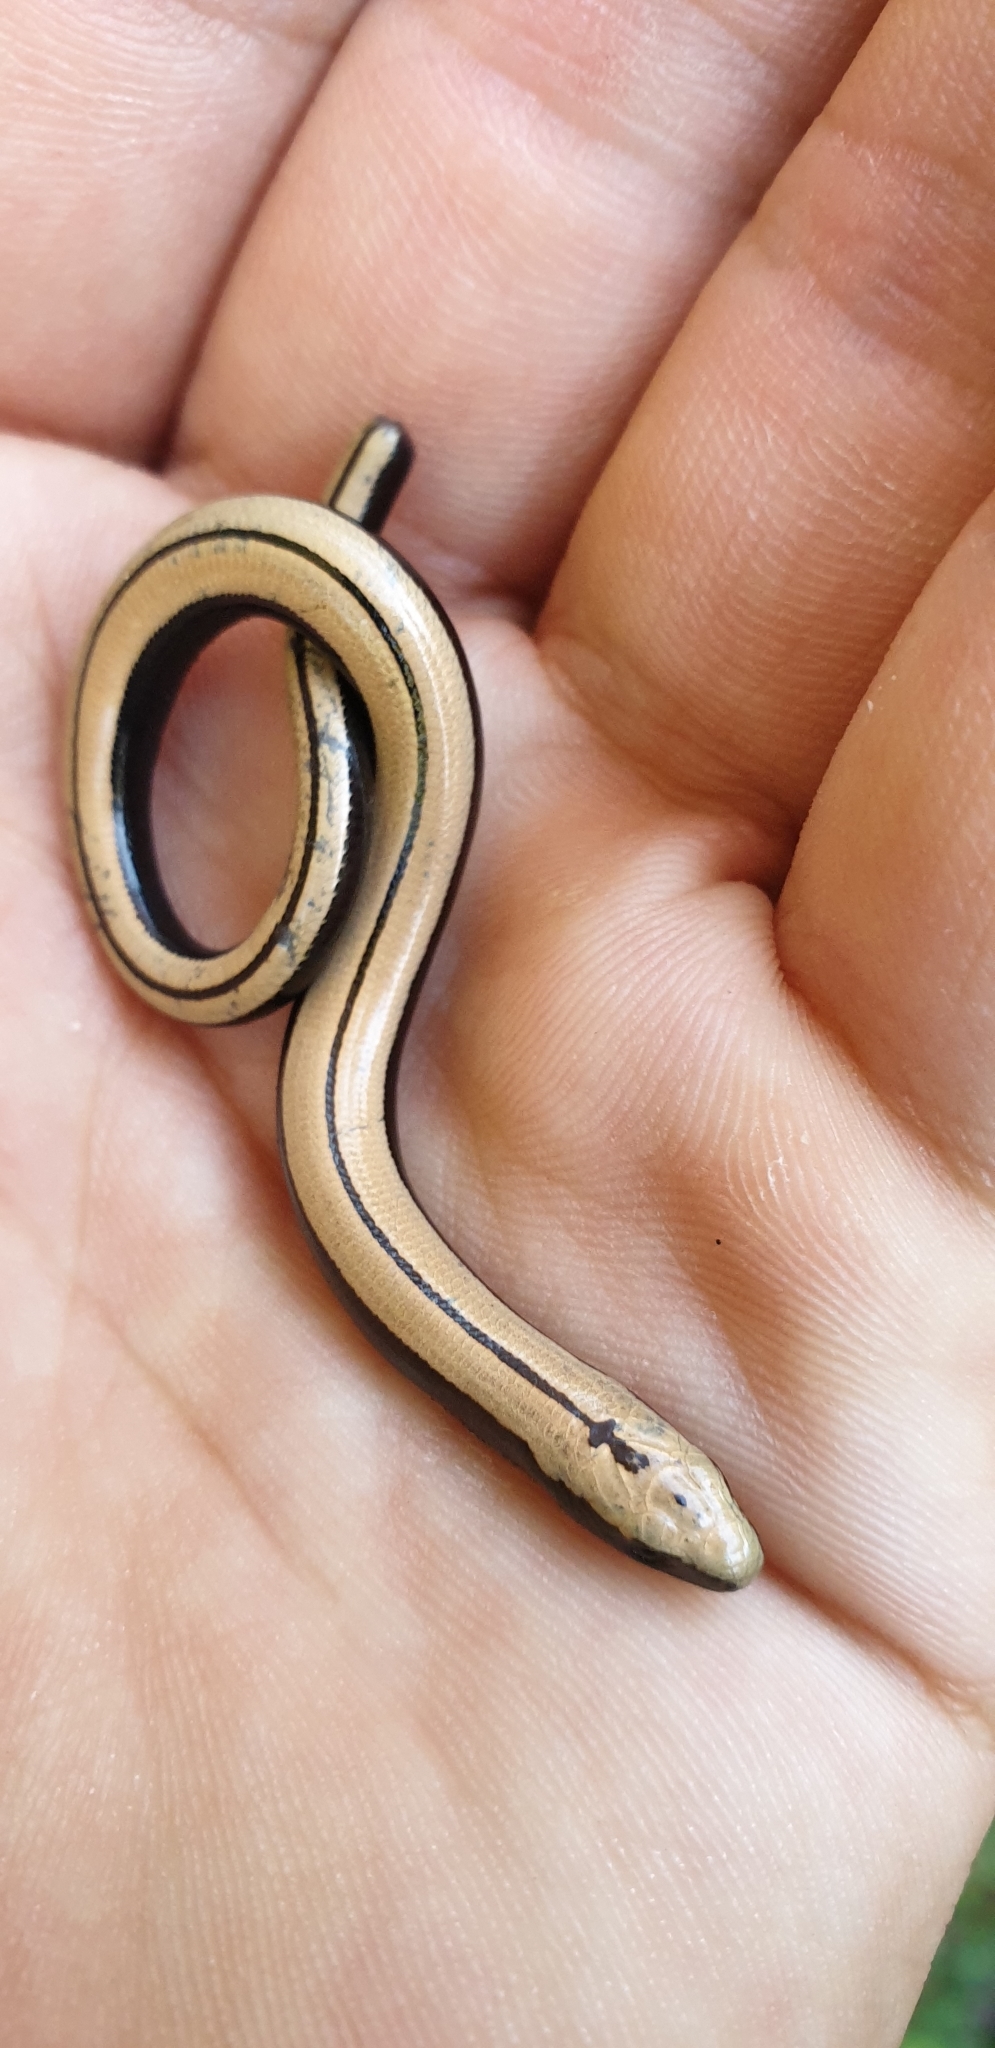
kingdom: Animalia
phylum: Chordata
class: Squamata
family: Anguidae
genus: Anguis
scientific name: Anguis colchica
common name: Slow worm
